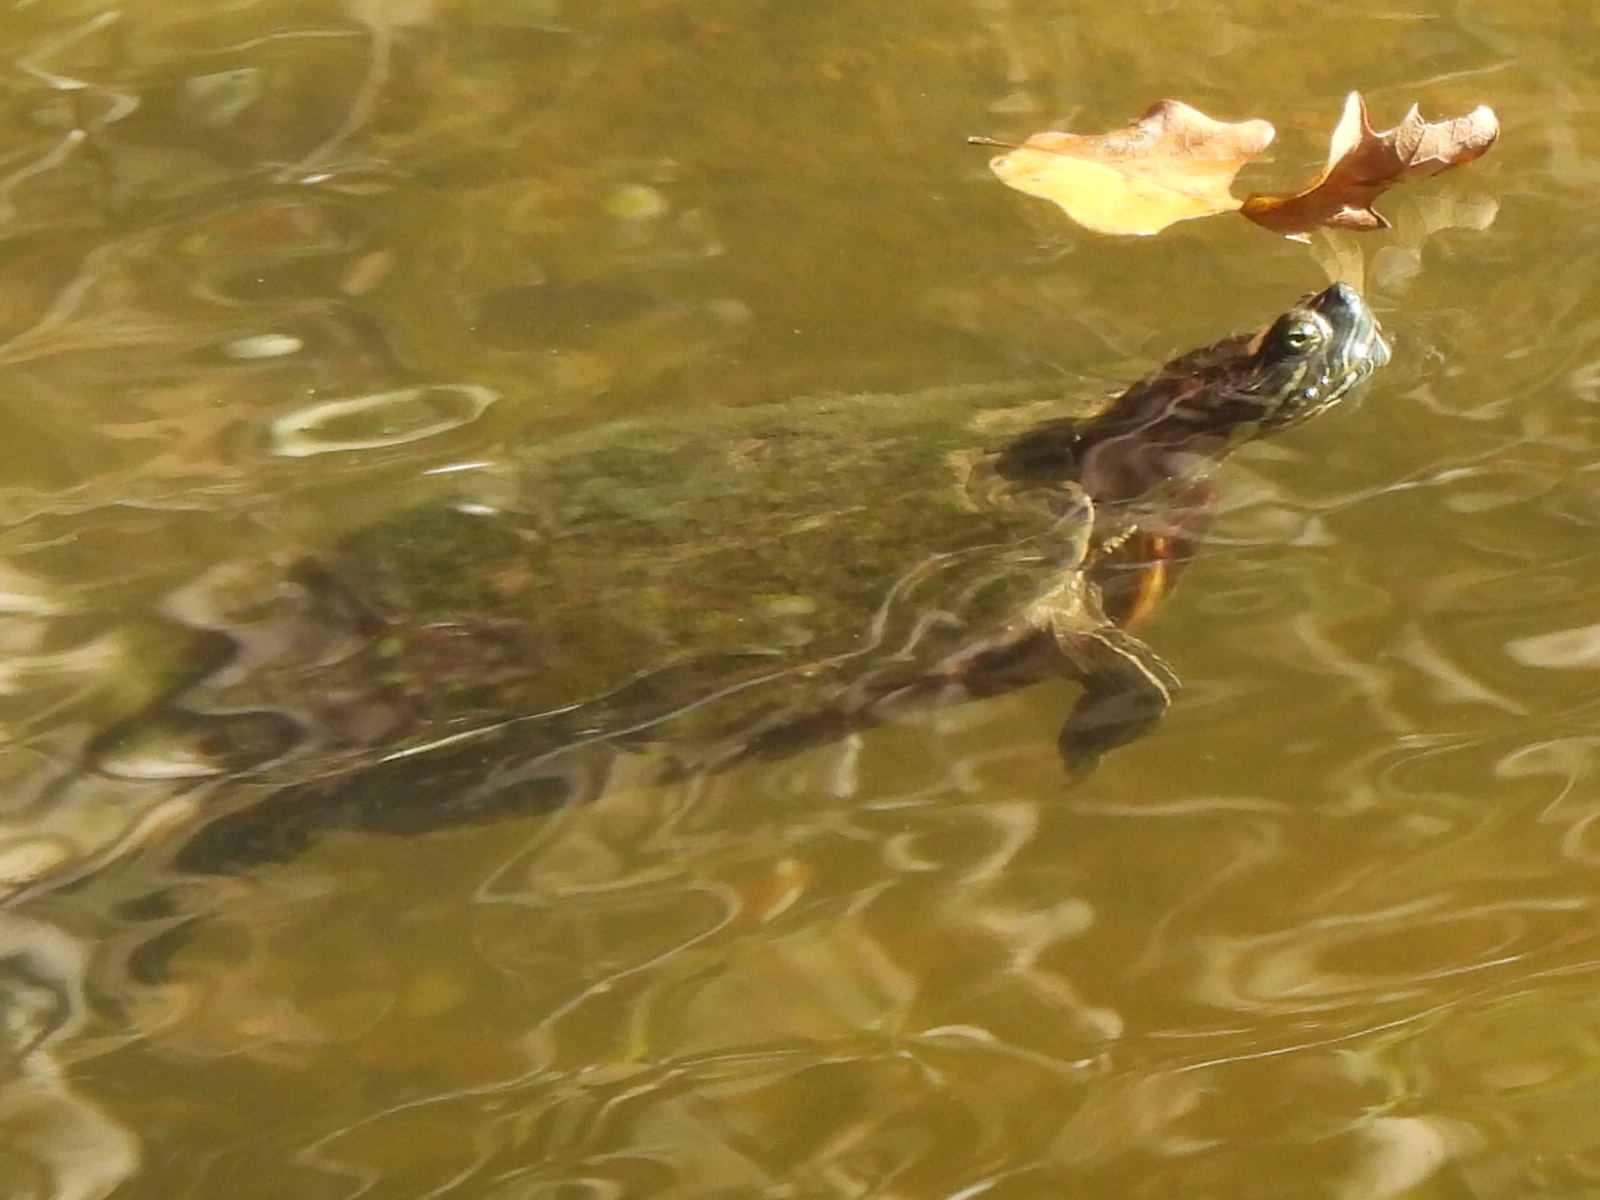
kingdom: Animalia
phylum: Chordata
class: Testudines
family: Emydidae
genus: Trachemys
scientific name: Trachemys scripta
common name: Slider
